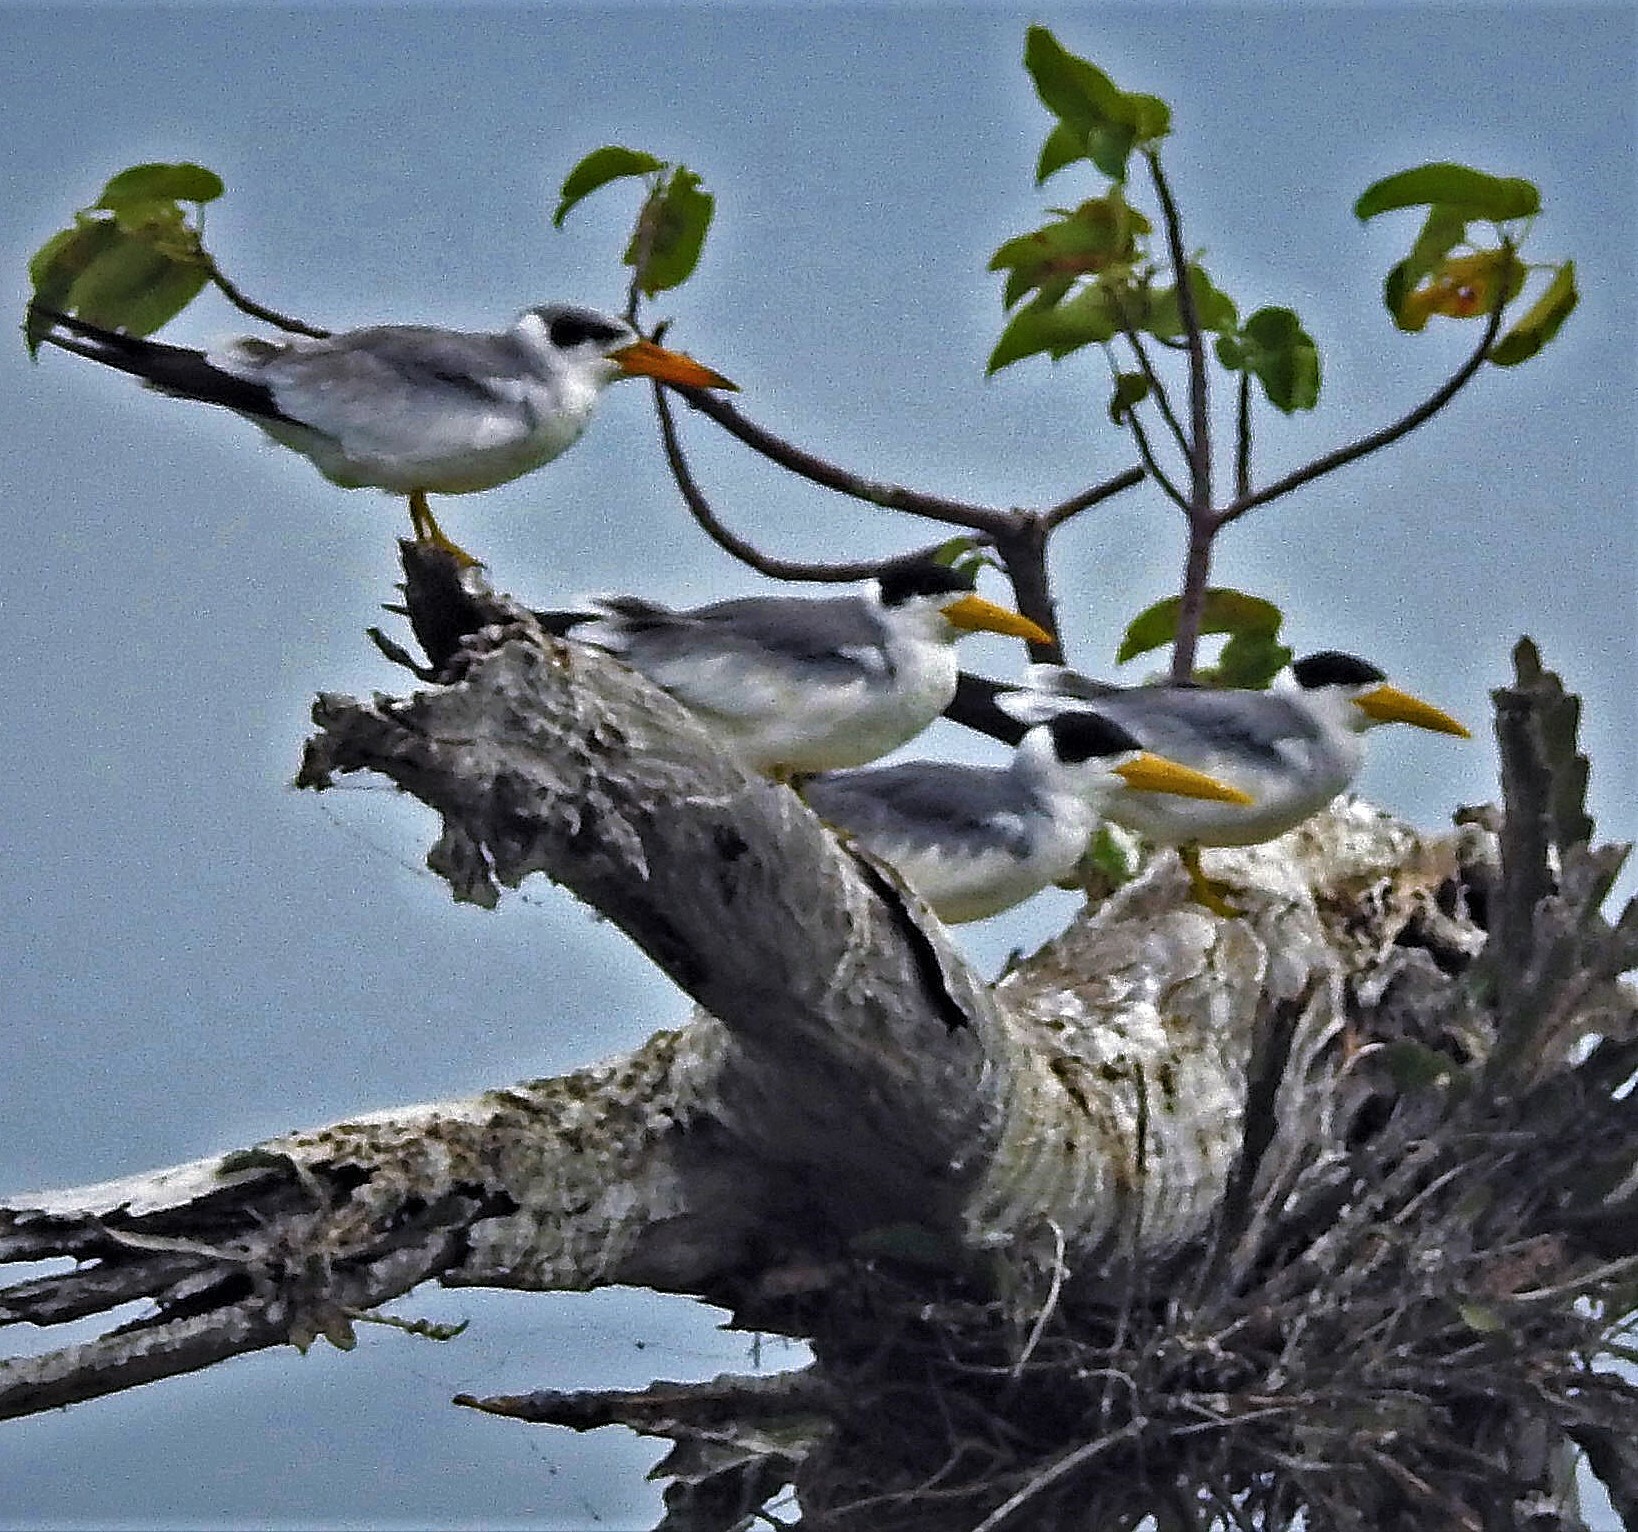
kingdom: Animalia
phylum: Chordata
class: Aves
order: Charadriiformes
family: Laridae
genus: Phaetusa
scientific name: Phaetusa simplex
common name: Large-billed tern
